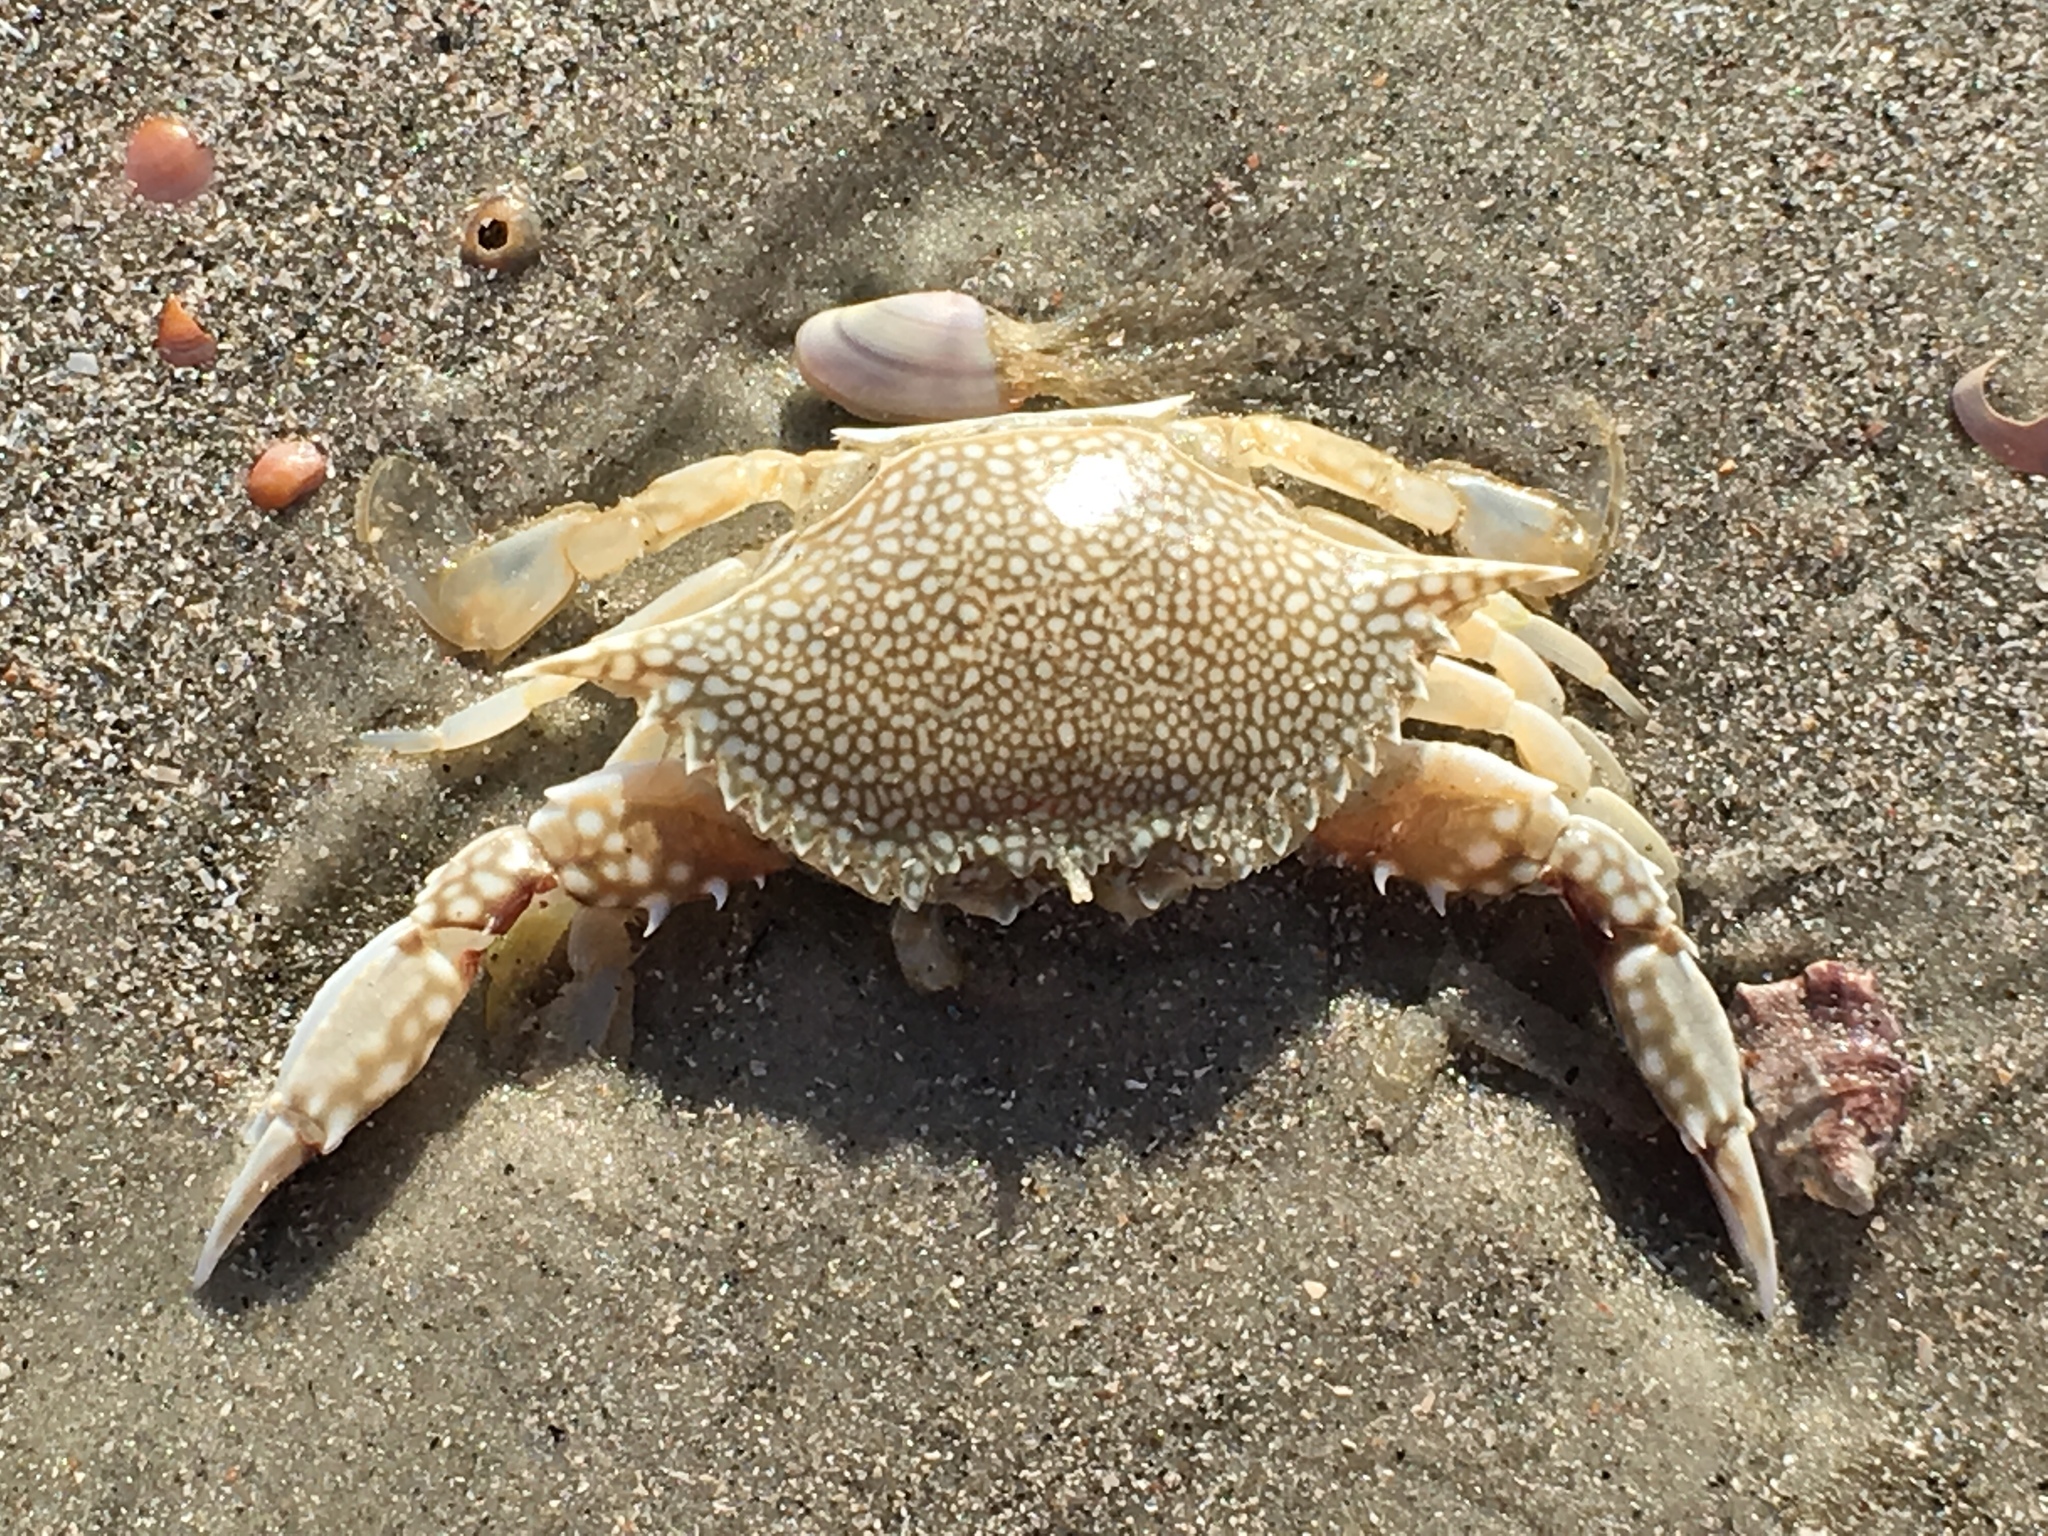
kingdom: Animalia
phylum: Arthropoda
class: Malacostraca
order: Decapoda
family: Portunidae
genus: Arenaeus
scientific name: Arenaeus cribrarius
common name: Speckled crab
